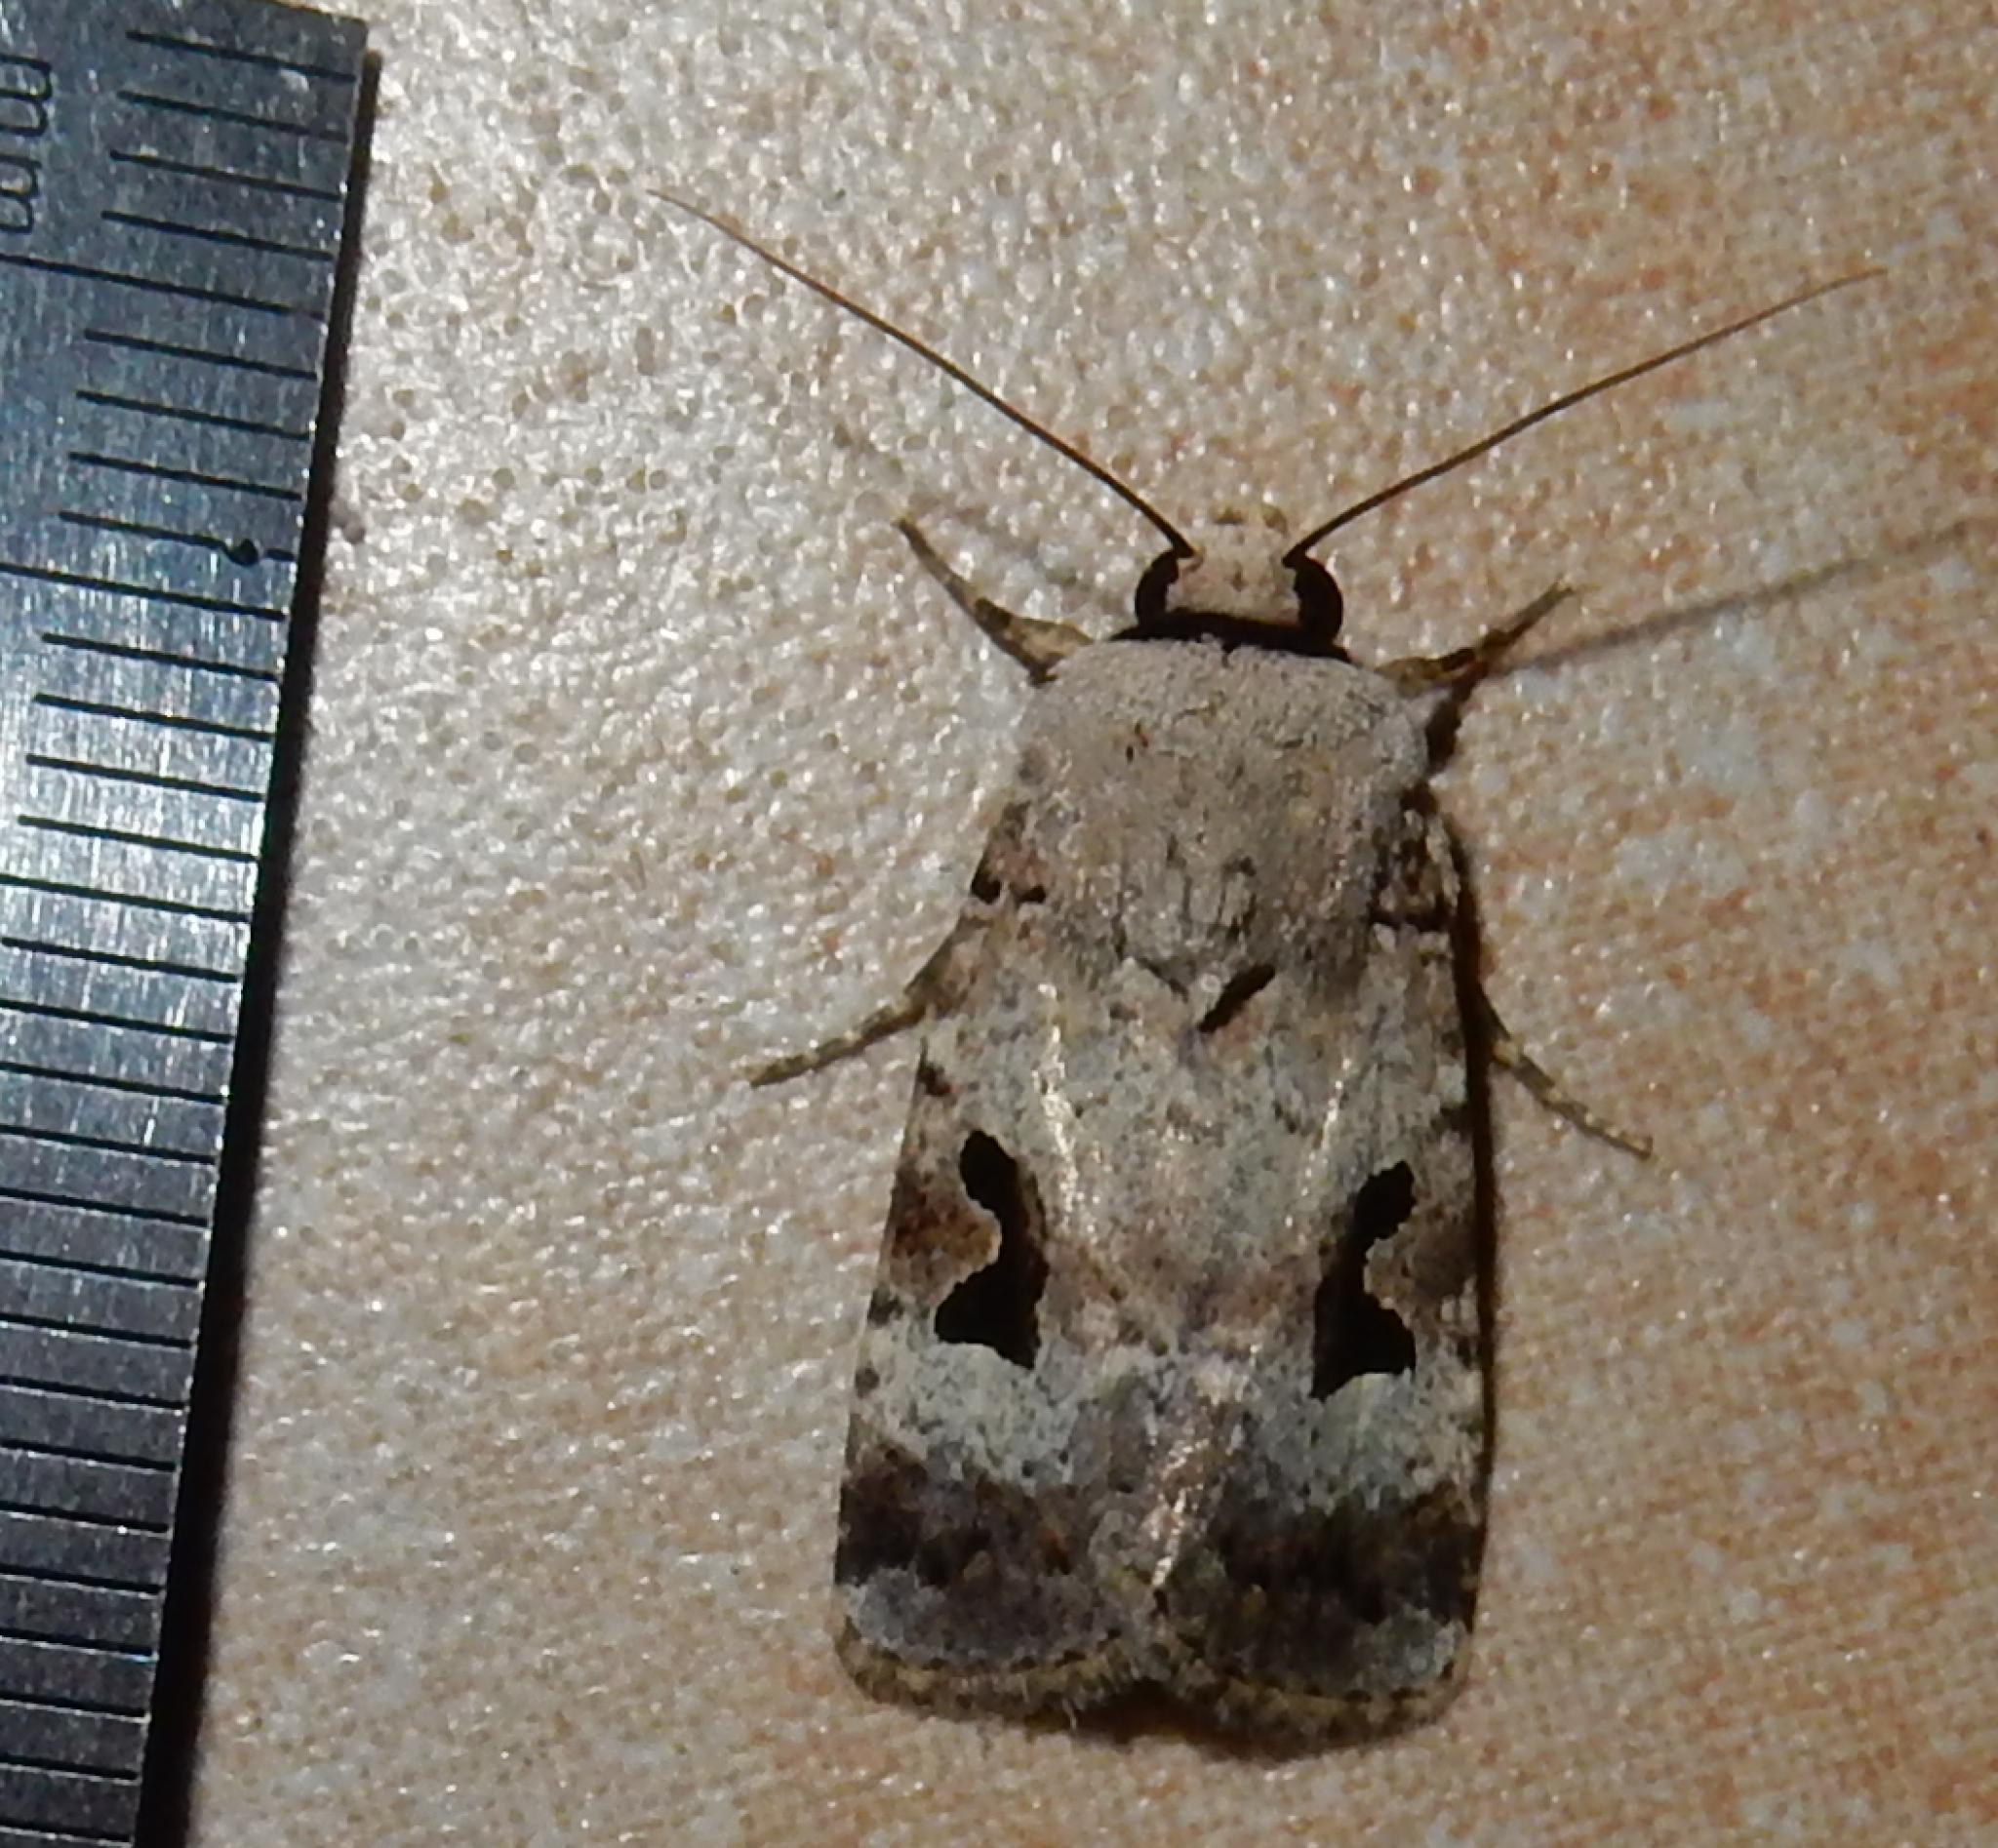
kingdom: Animalia
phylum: Arthropoda
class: Insecta
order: Lepidoptera
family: Noctuidae
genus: Spodoptera
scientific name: Spodoptera abyssinia
